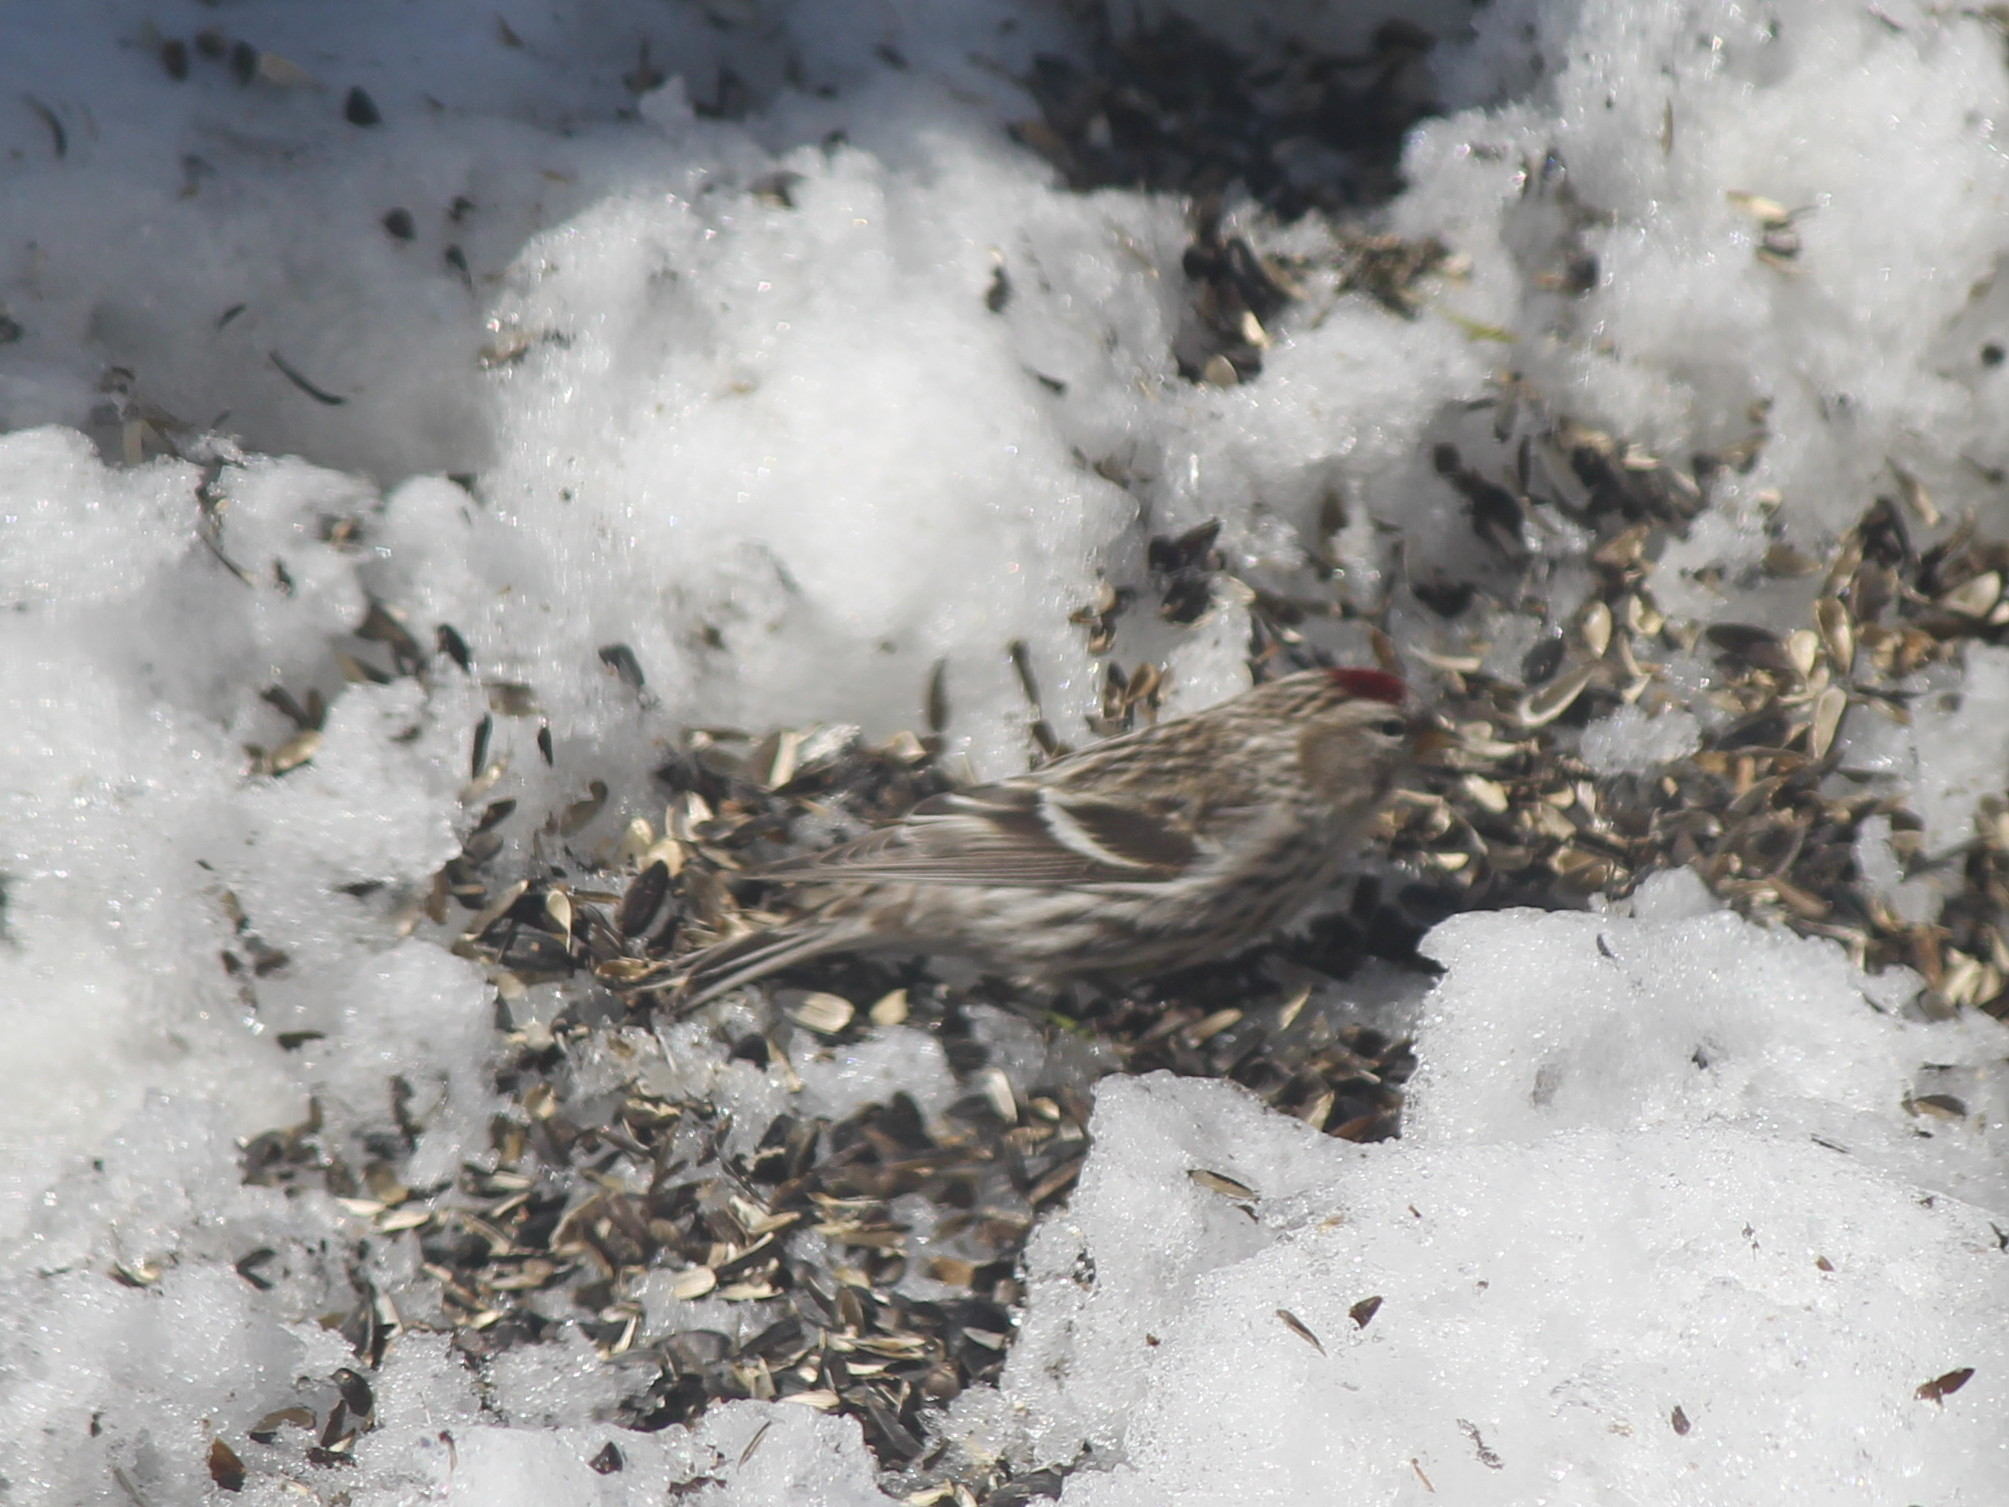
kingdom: Animalia
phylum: Chordata
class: Aves
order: Passeriformes
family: Fringillidae
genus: Acanthis
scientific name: Acanthis flammea
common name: Common redpoll
